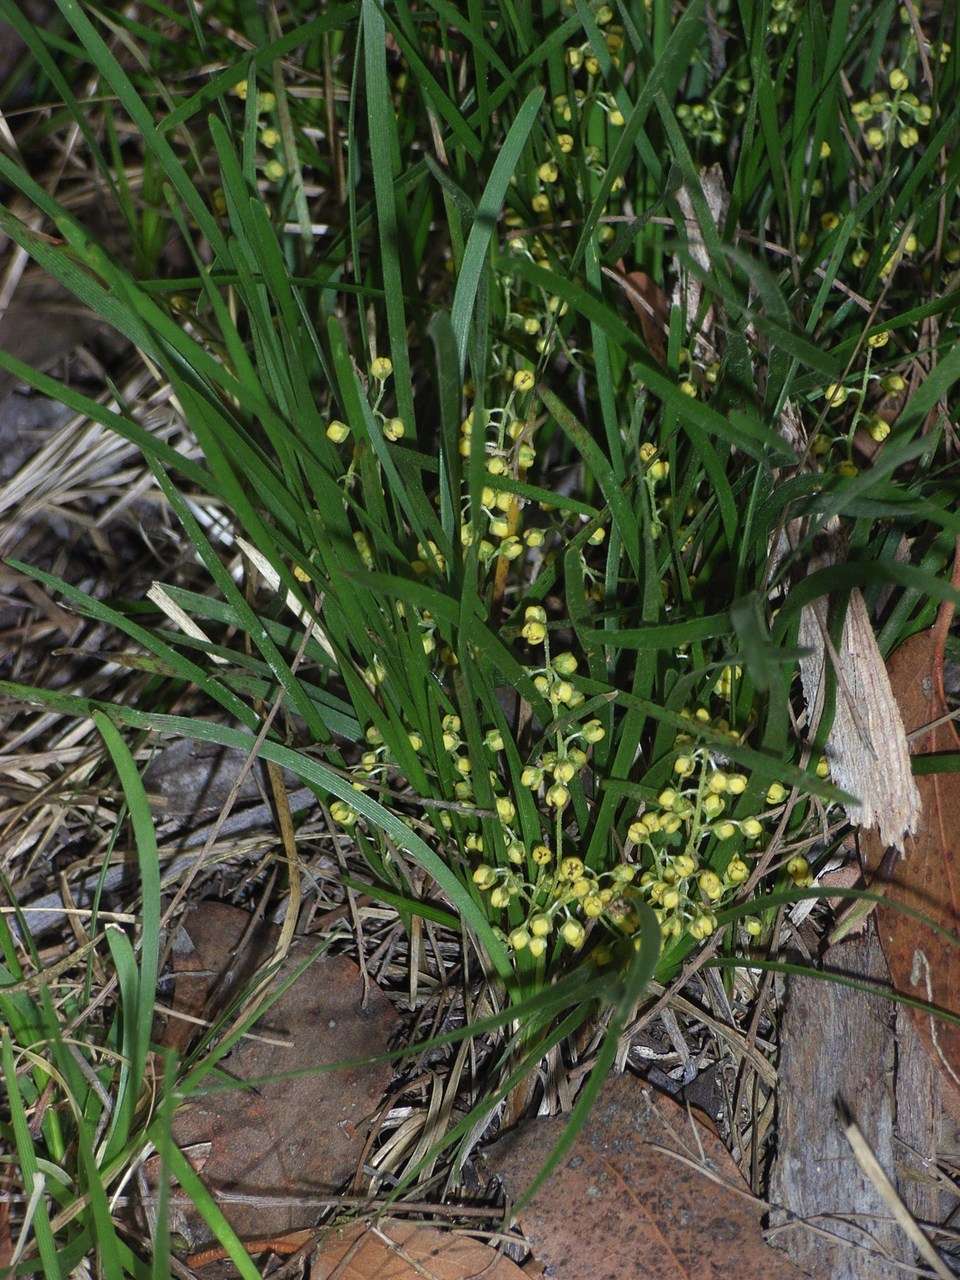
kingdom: Plantae
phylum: Tracheophyta
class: Liliopsida
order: Asparagales
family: Asparagaceae
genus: Lomandra
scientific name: Lomandra filiformis
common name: Wattle mat-rush
